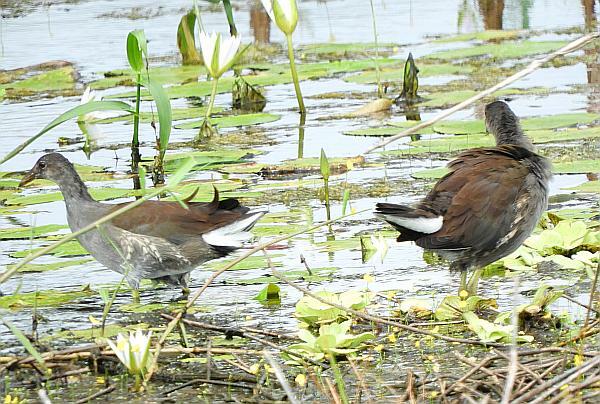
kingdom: Animalia
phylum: Chordata
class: Aves
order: Gruiformes
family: Rallidae
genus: Gallinula
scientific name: Gallinula chloropus
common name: Common moorhen
